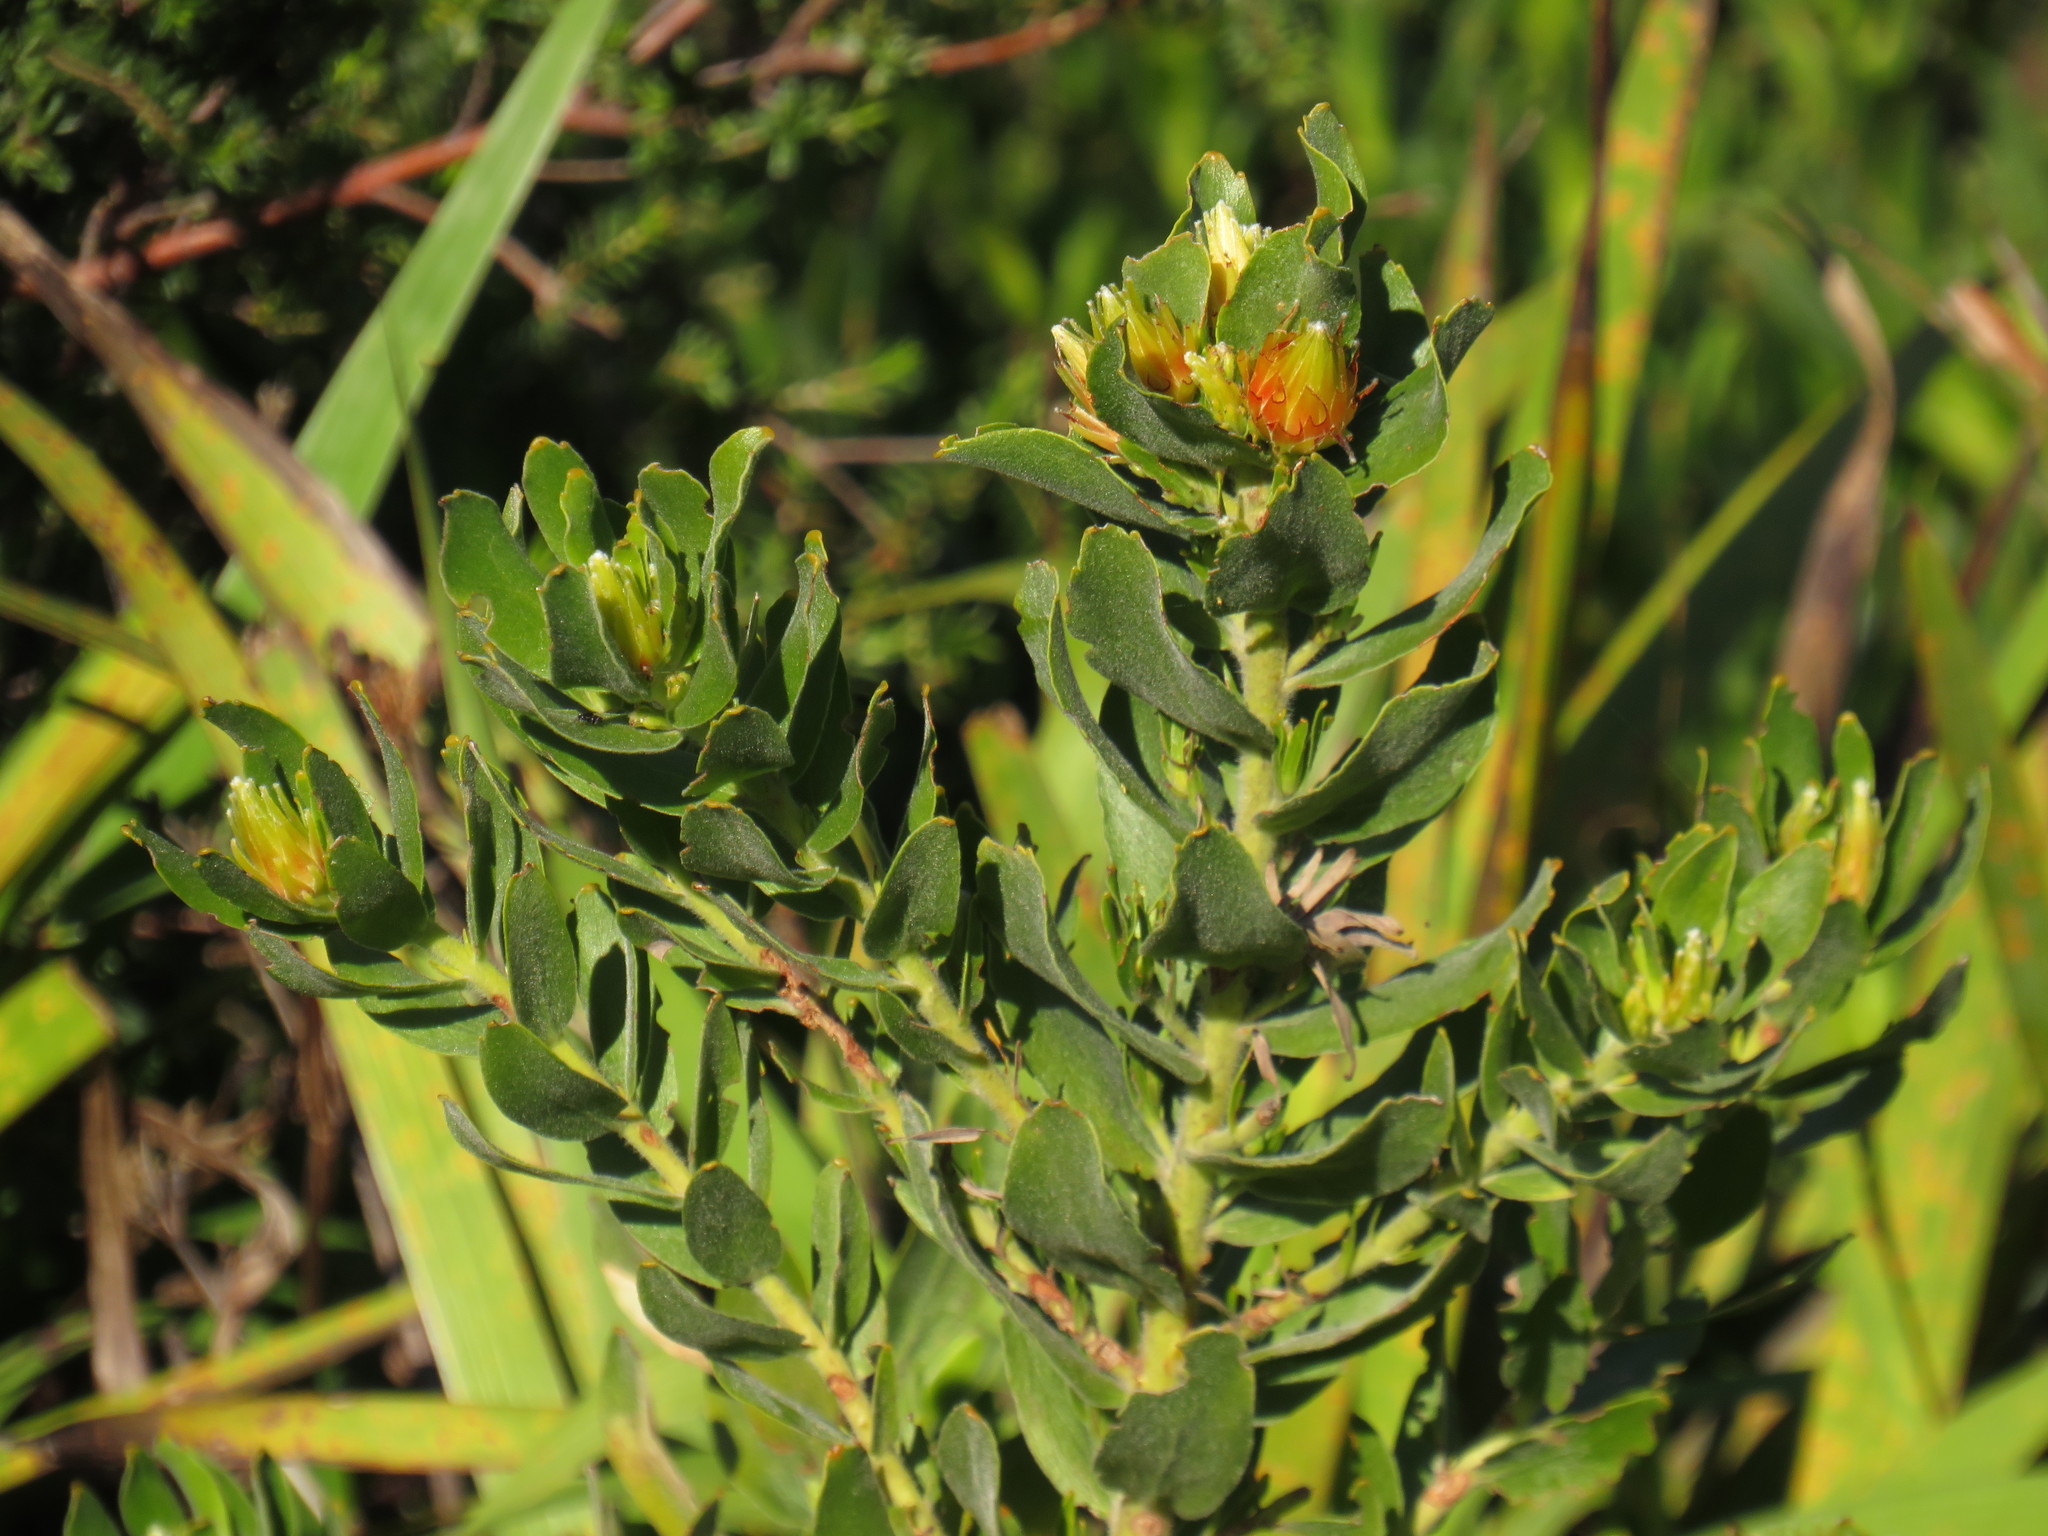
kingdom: Plantae
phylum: Tracheophyta
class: Magnoliopsida
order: Proteales
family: Proteaceae
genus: Leucospermum
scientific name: Leucospermum oleifolium
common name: Matches
